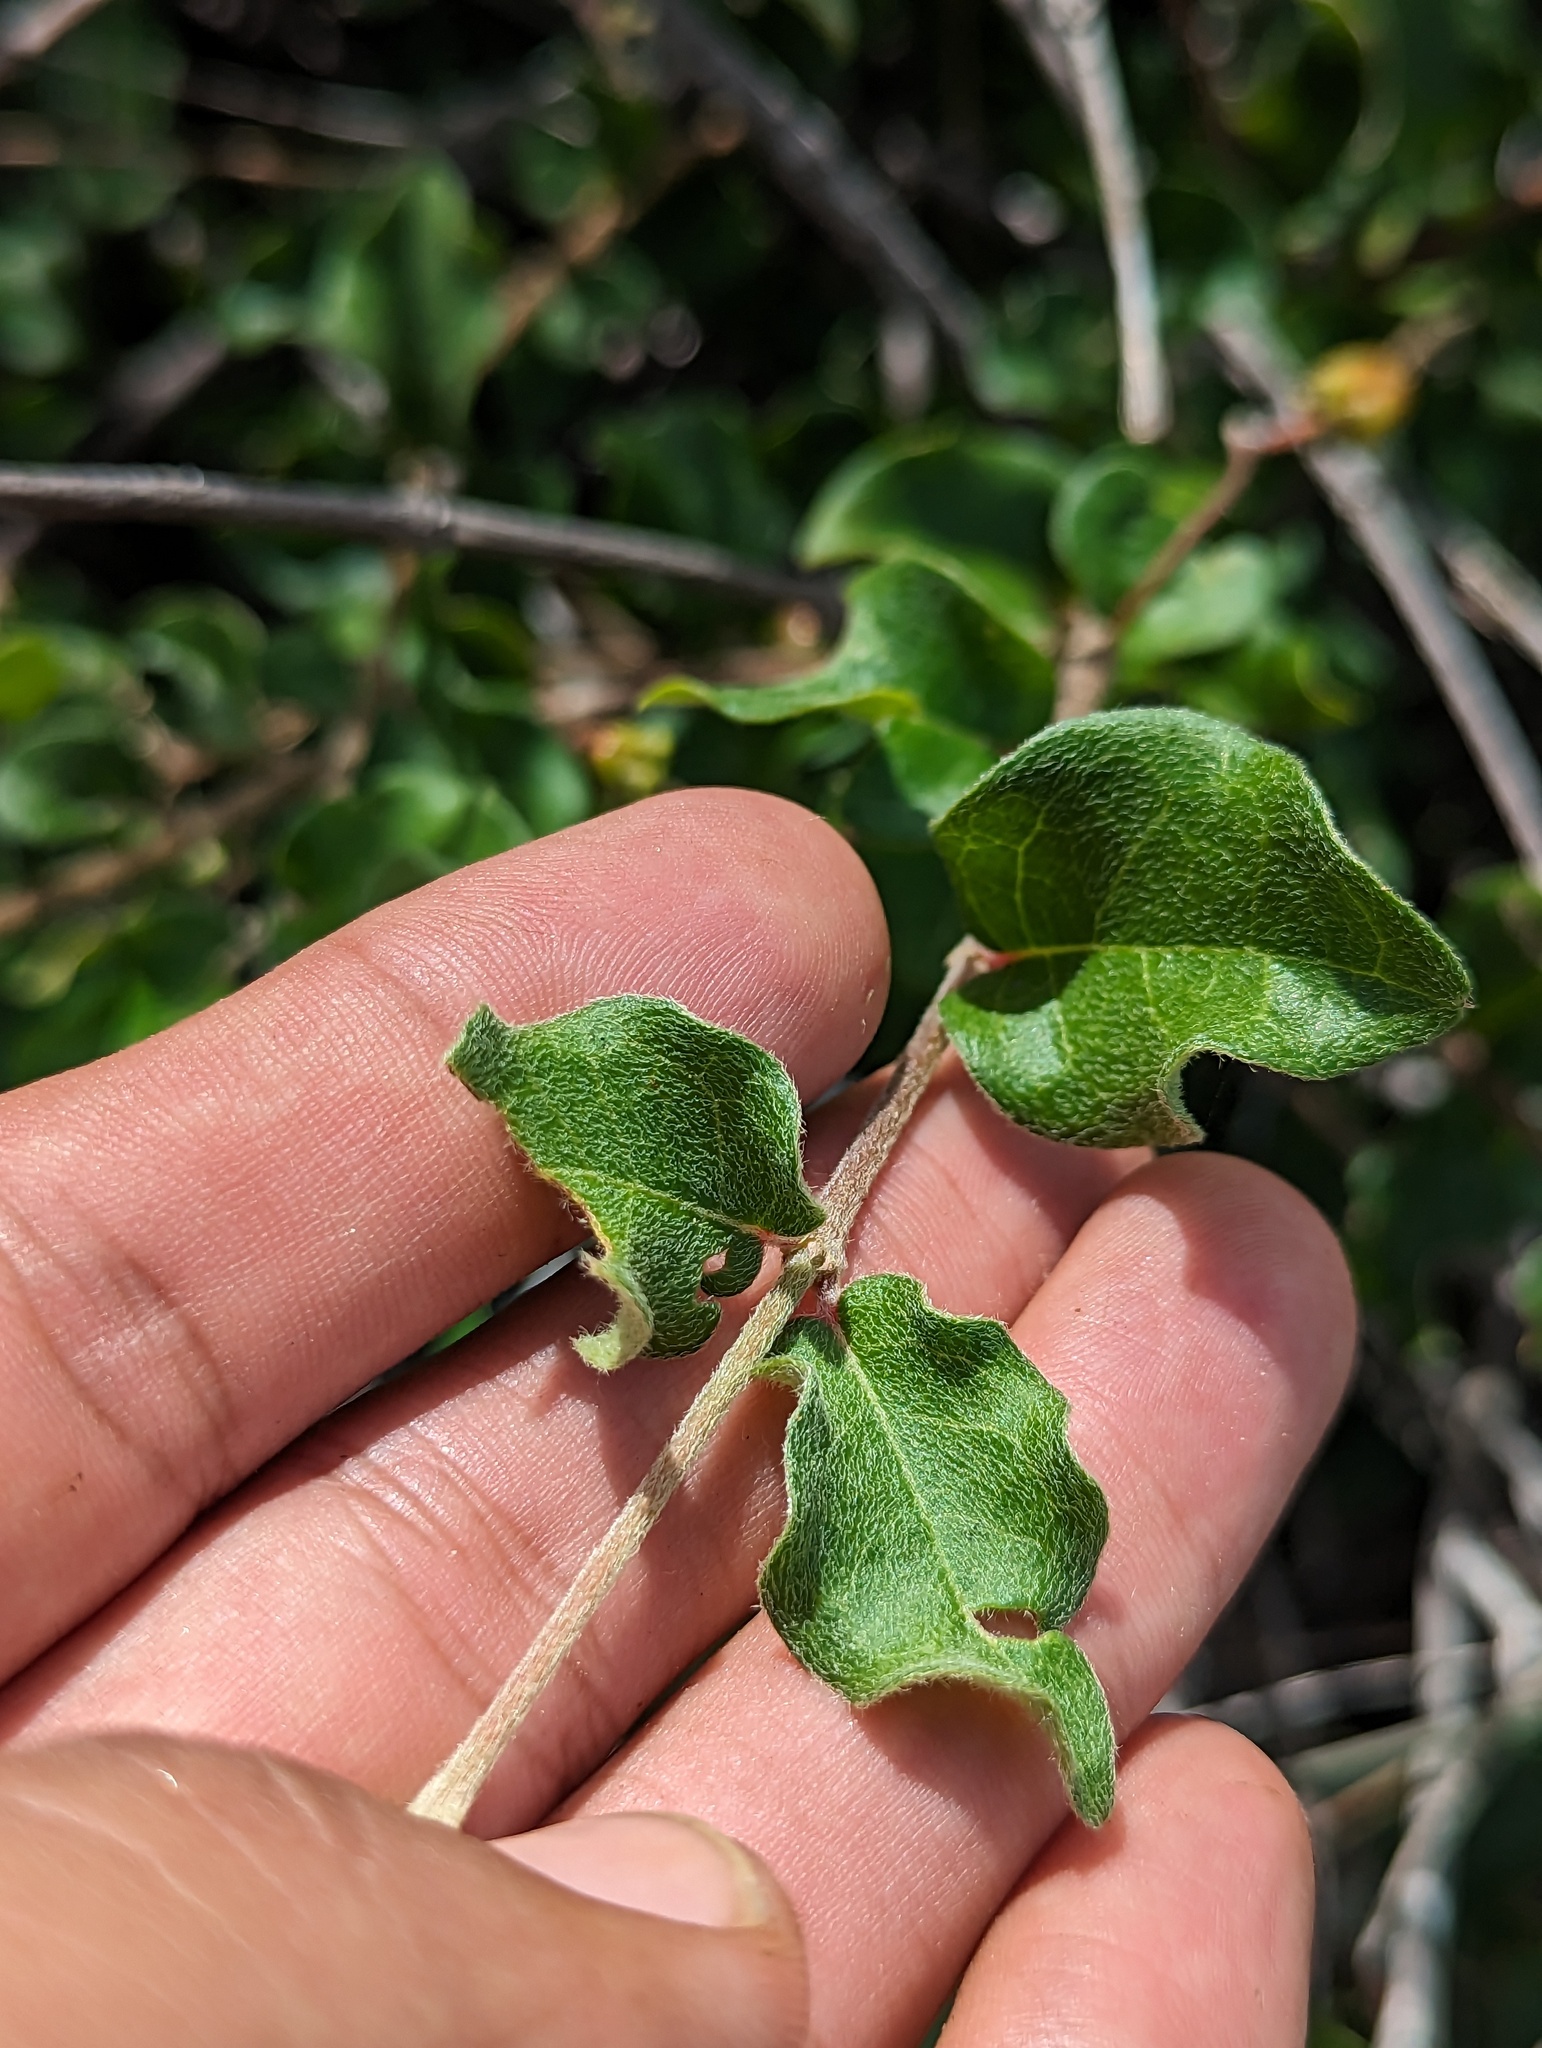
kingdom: Plantae
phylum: Tracheophyta
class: Magnoliopsida
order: Malpighiales
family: Malpighiaceae
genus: Malpighia
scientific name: Malpighia diversifolia
